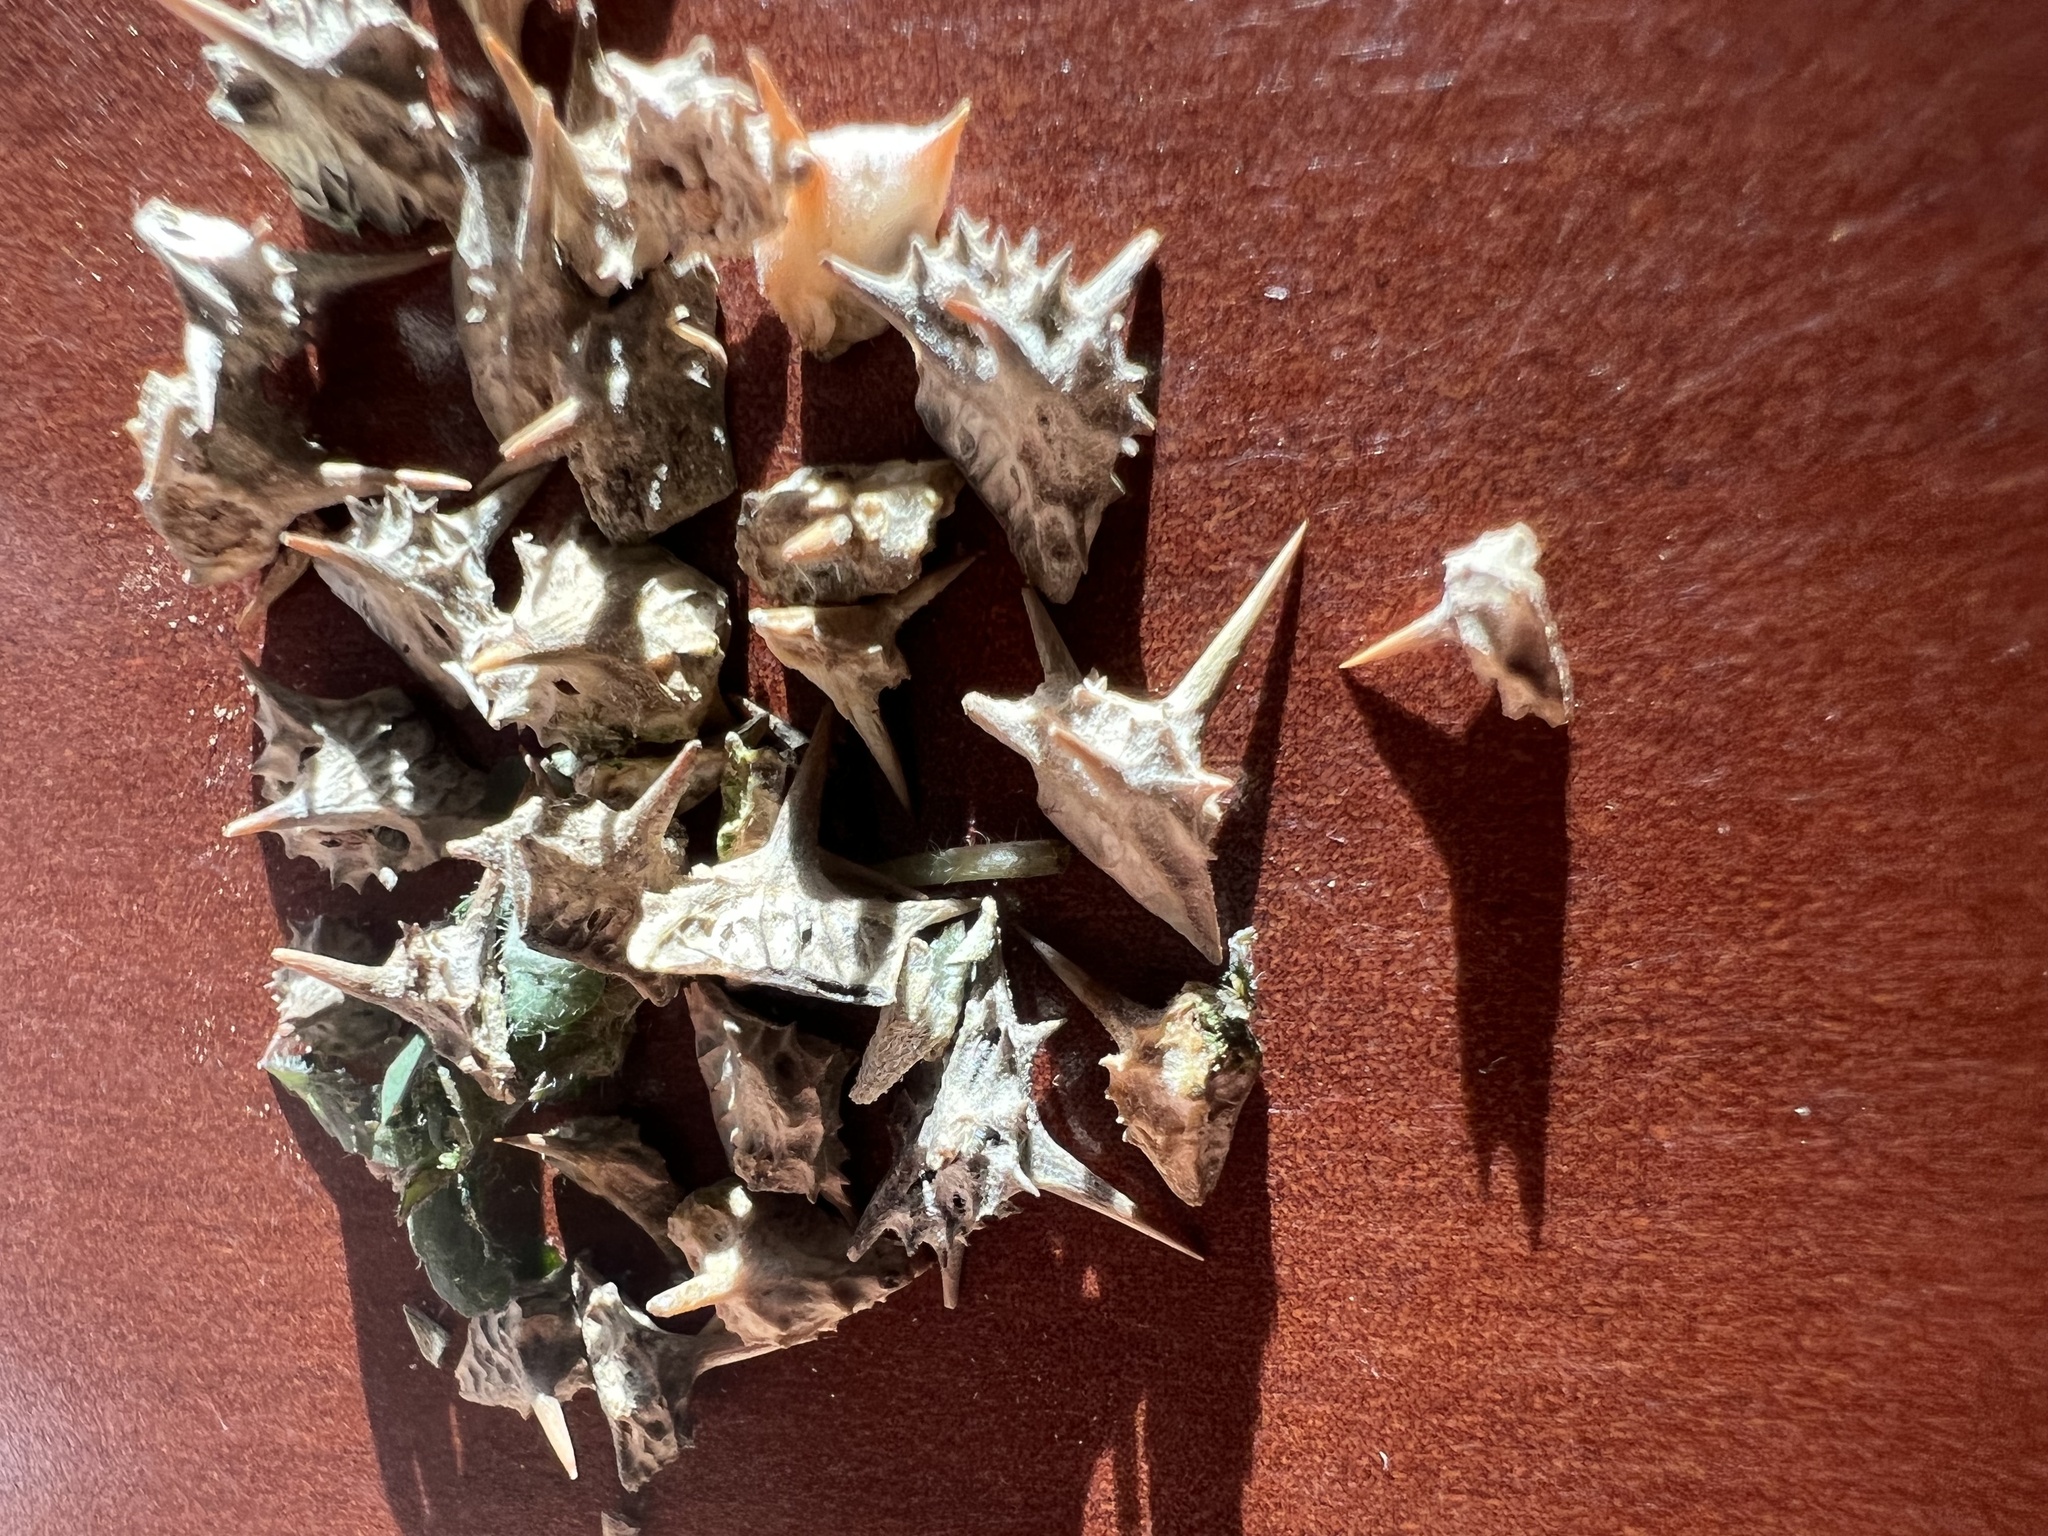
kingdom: Plantae
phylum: Tracheophyta
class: Magnoliopsida
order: Zygophyllales
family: Zygophyllaceae
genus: Tribulus
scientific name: Tribulus terrestris
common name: Puncturevine
